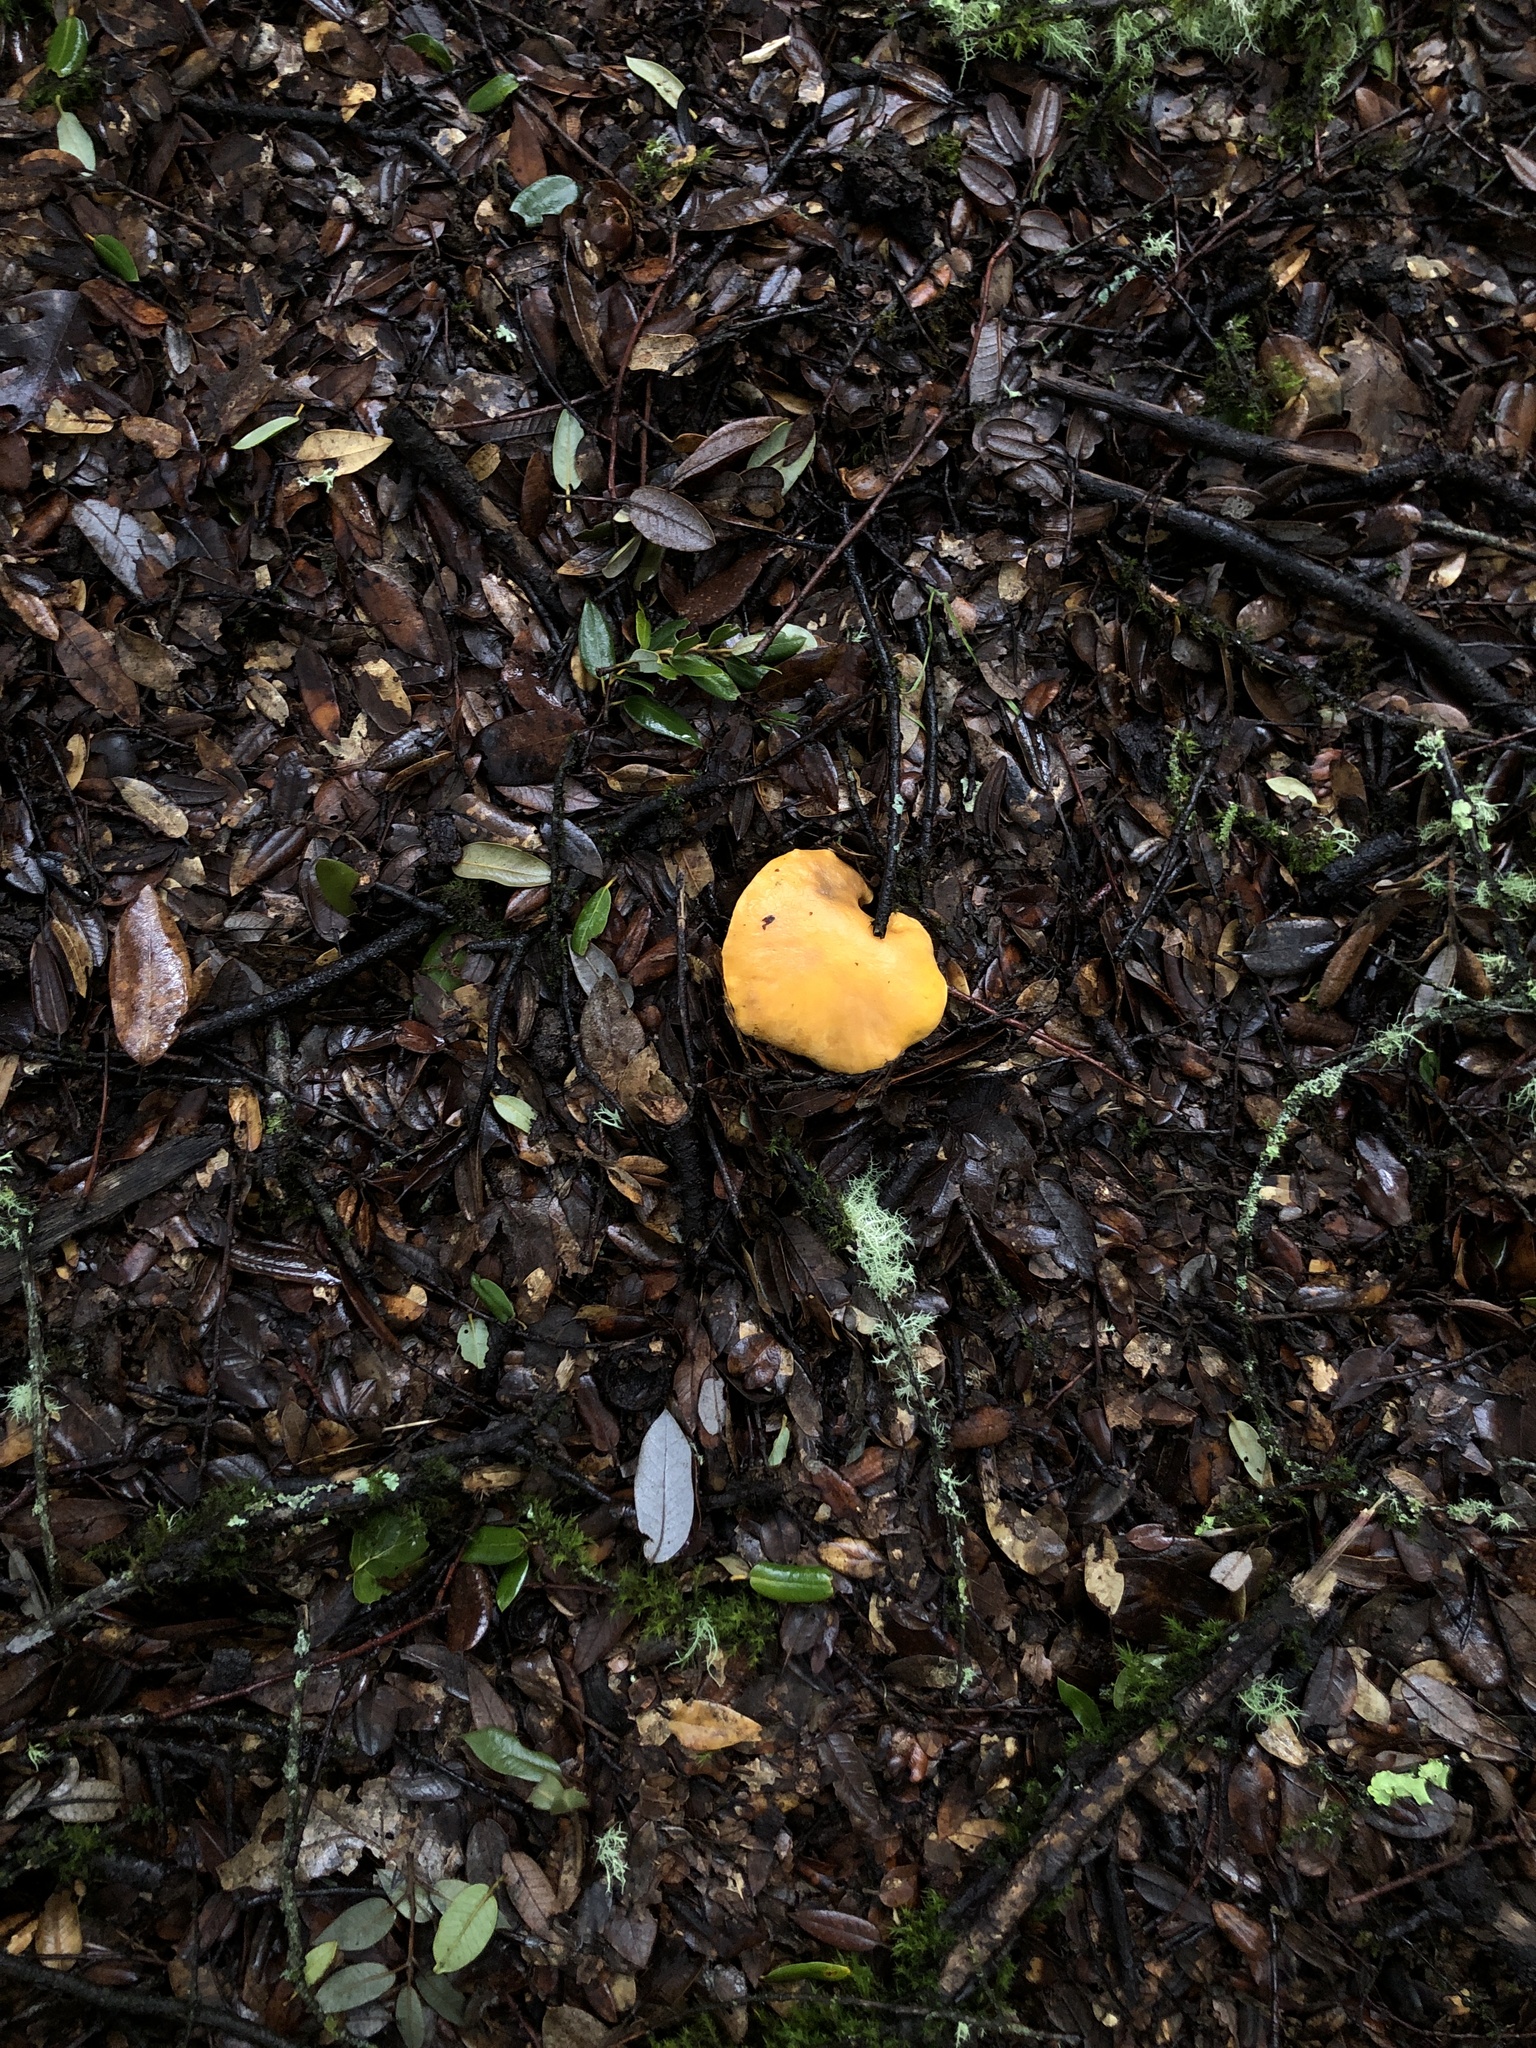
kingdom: Fungi
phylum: Basidiomycota
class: Agaricomycetes
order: Cantharellales
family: Hydnaceae
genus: Cantharellus
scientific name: Cantharellus californicus
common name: California golden chanterelle
